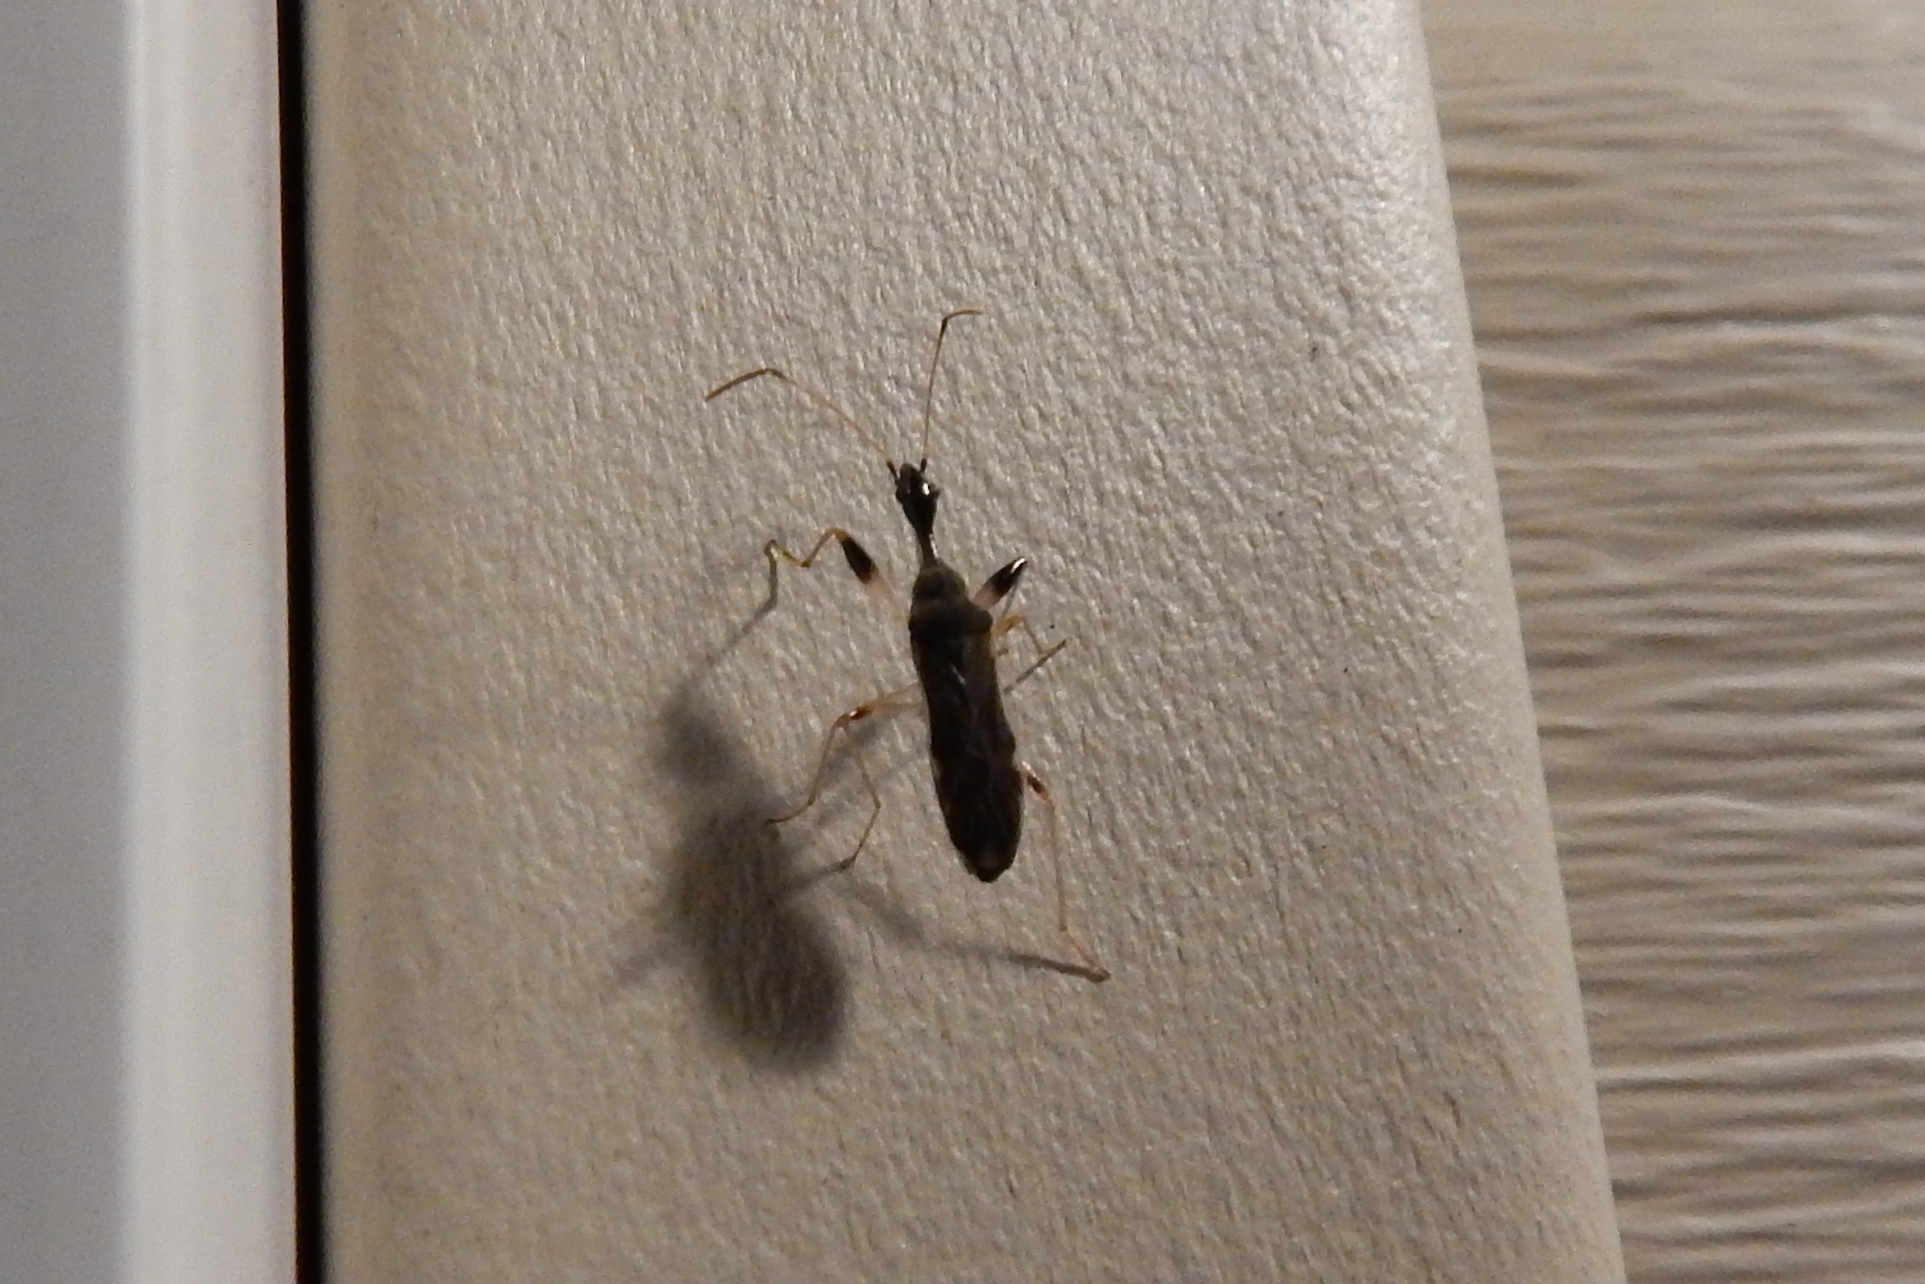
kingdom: Animalia
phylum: Arthropoda
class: Insecta
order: Hemiptera
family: Rhyparochromidae
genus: Myodocha
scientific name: Myodocha serripes
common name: Long-necked seed bug
